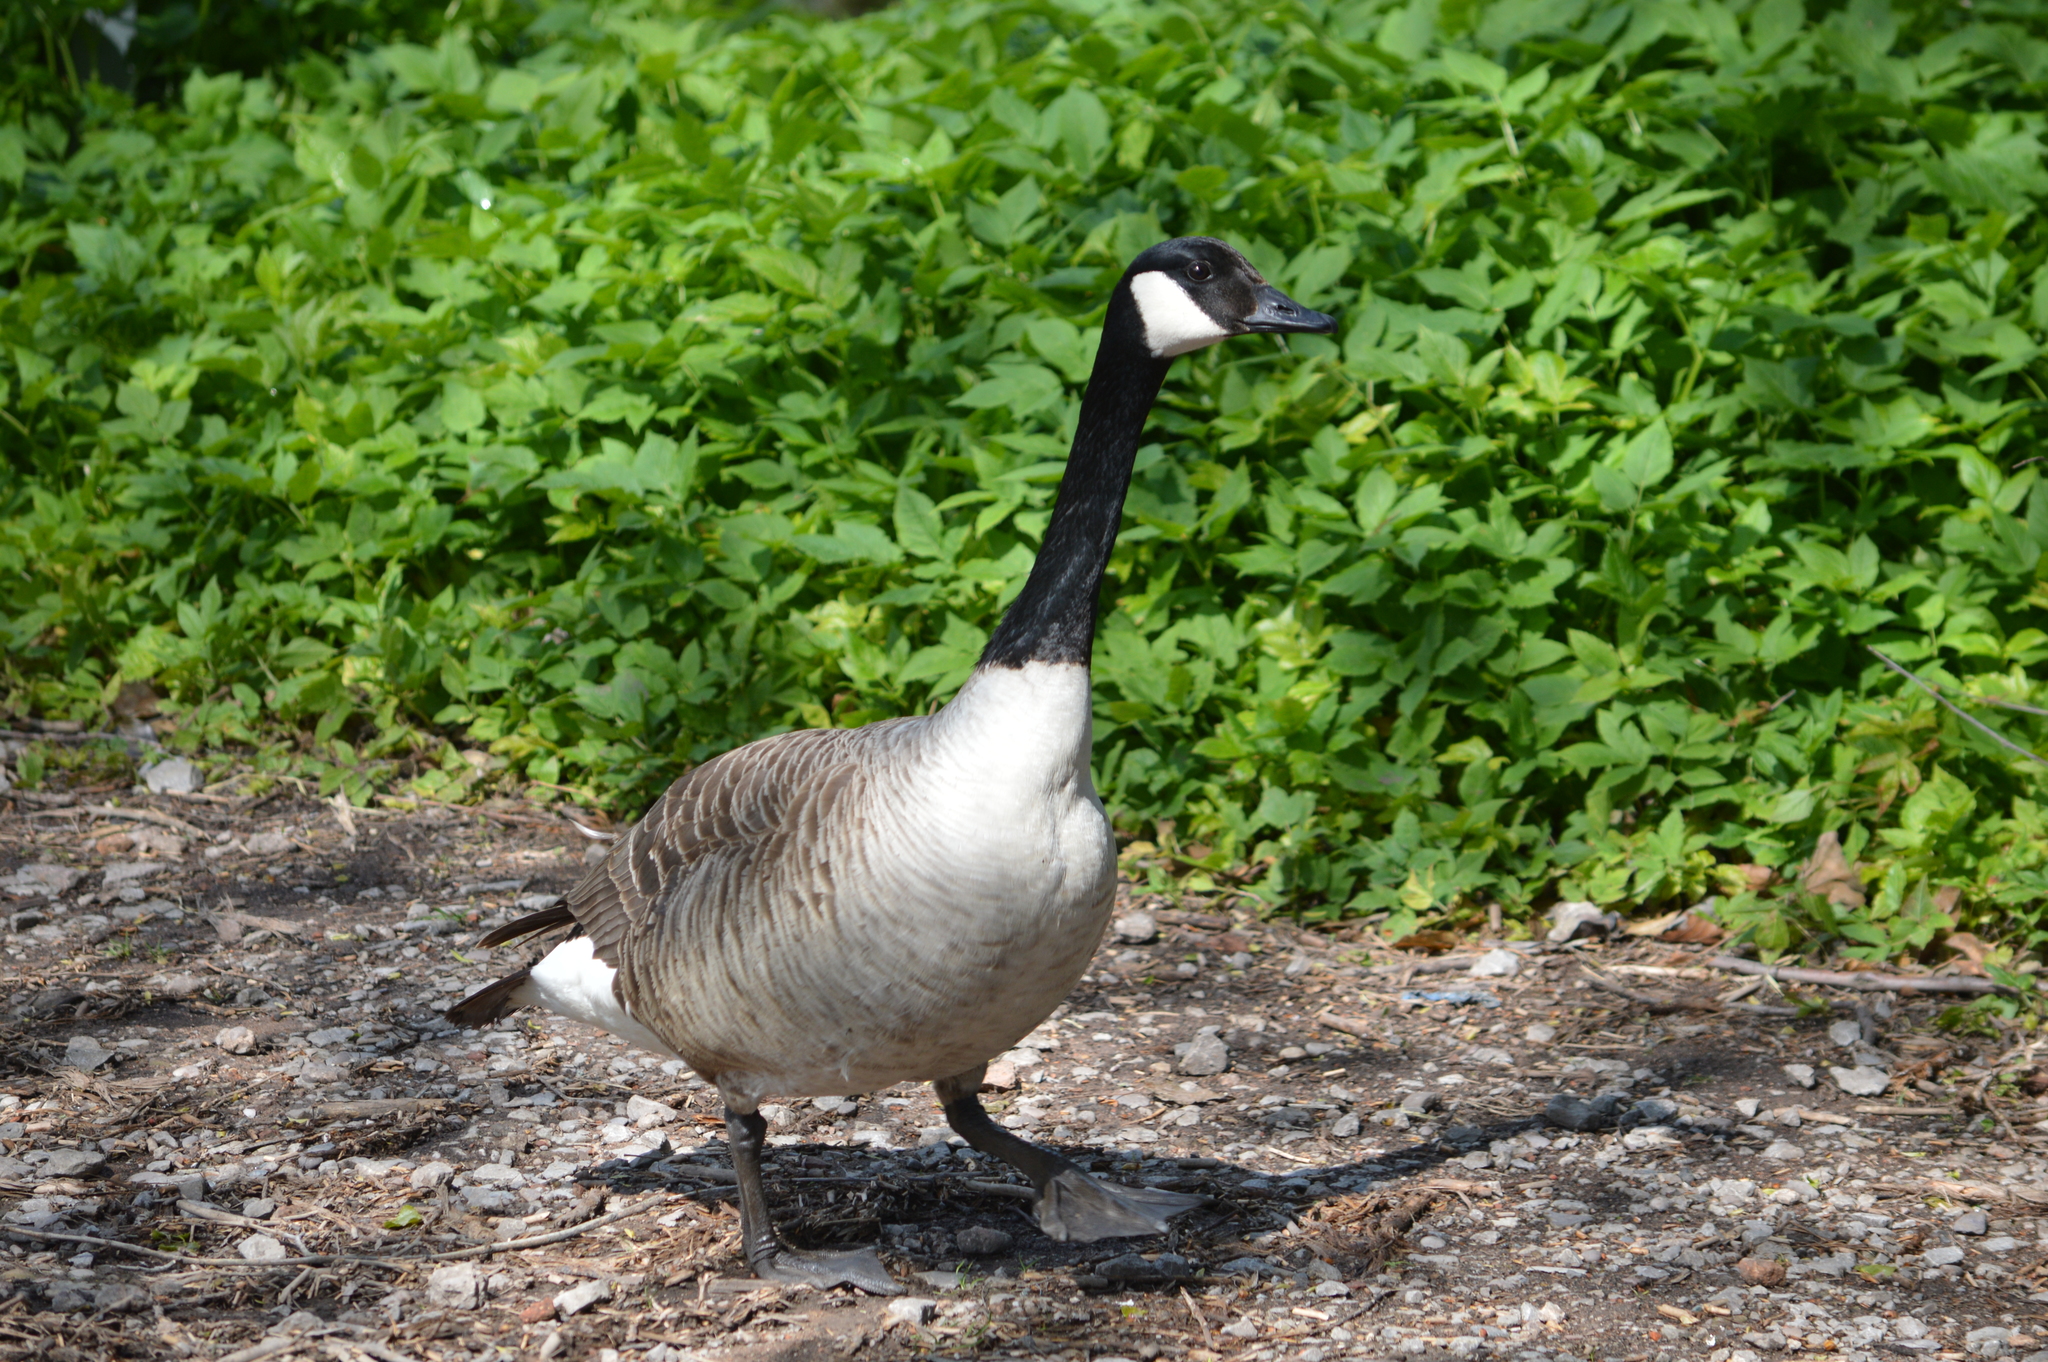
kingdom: Animalia
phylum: Chordata
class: Aves
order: Anseriformes
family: Anatidae
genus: Branta
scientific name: Branta canadensis
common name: Canada goose
